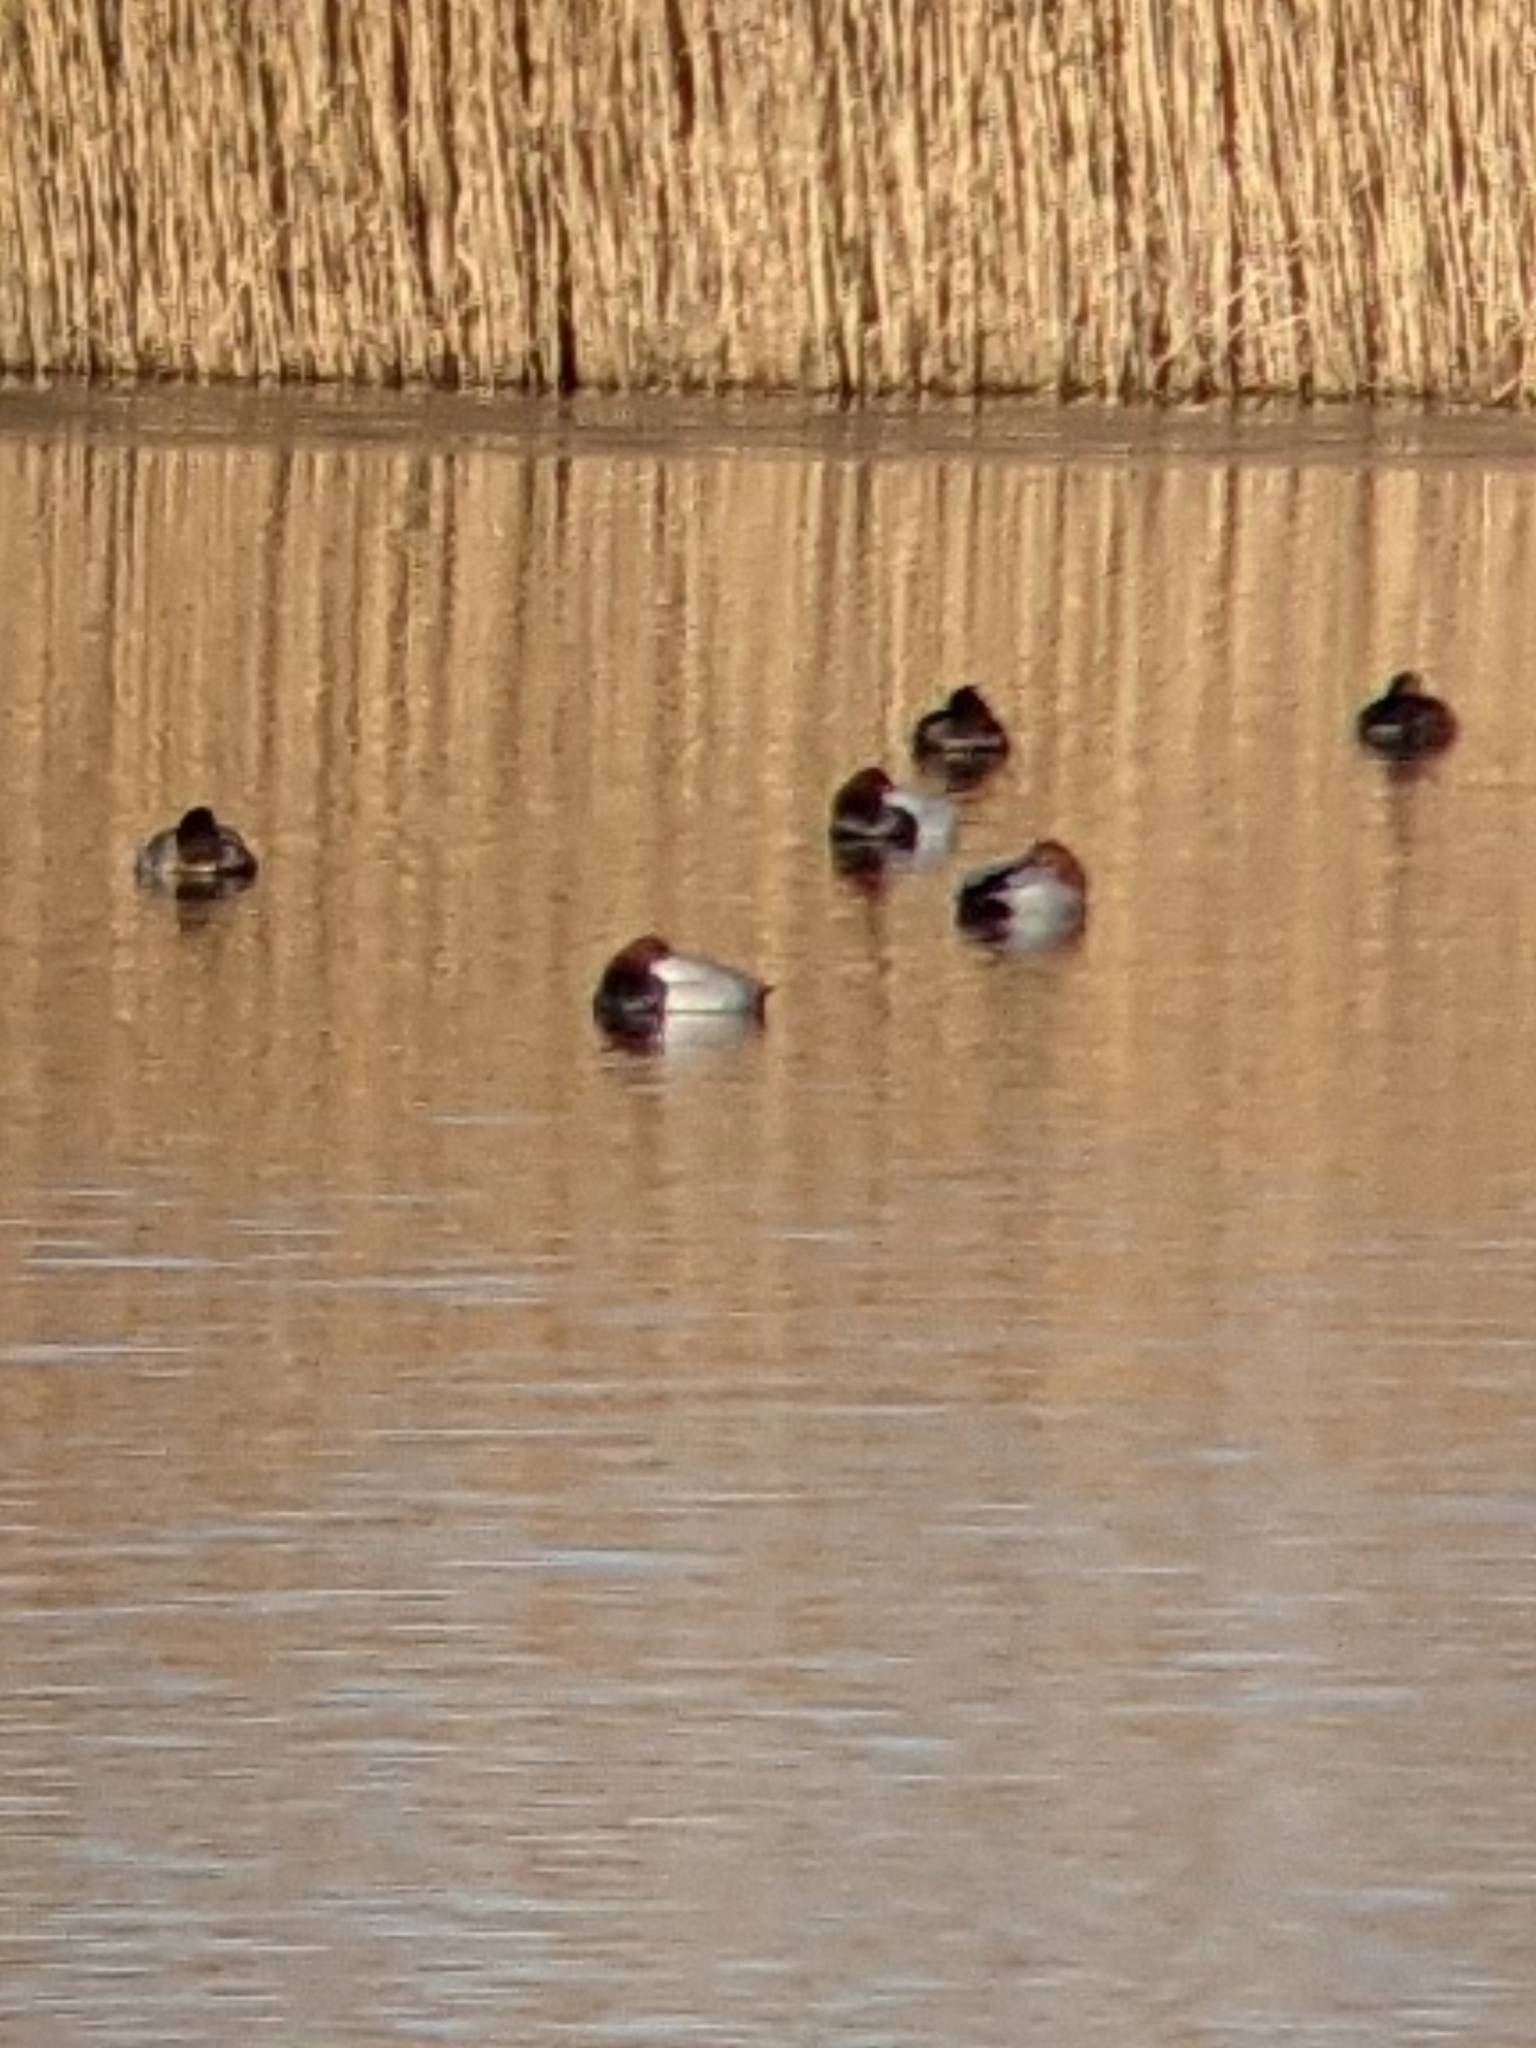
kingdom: Animalia
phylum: Chordata
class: Aves
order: Anseriformes
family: Anatidae
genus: Aythya
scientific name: Aythya ferina
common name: Common pochard
